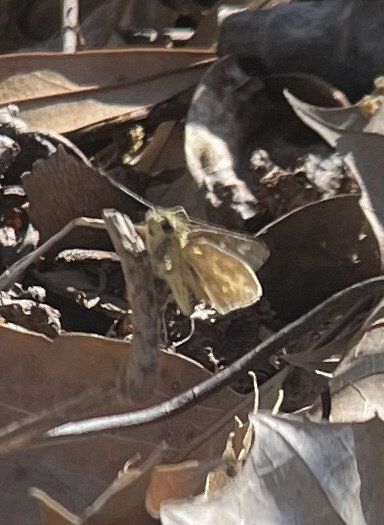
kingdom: Animalia
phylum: Arthropoda
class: Insecta
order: Lepidoptera
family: Hesperiidae
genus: Mastor
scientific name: Mastor carolina
